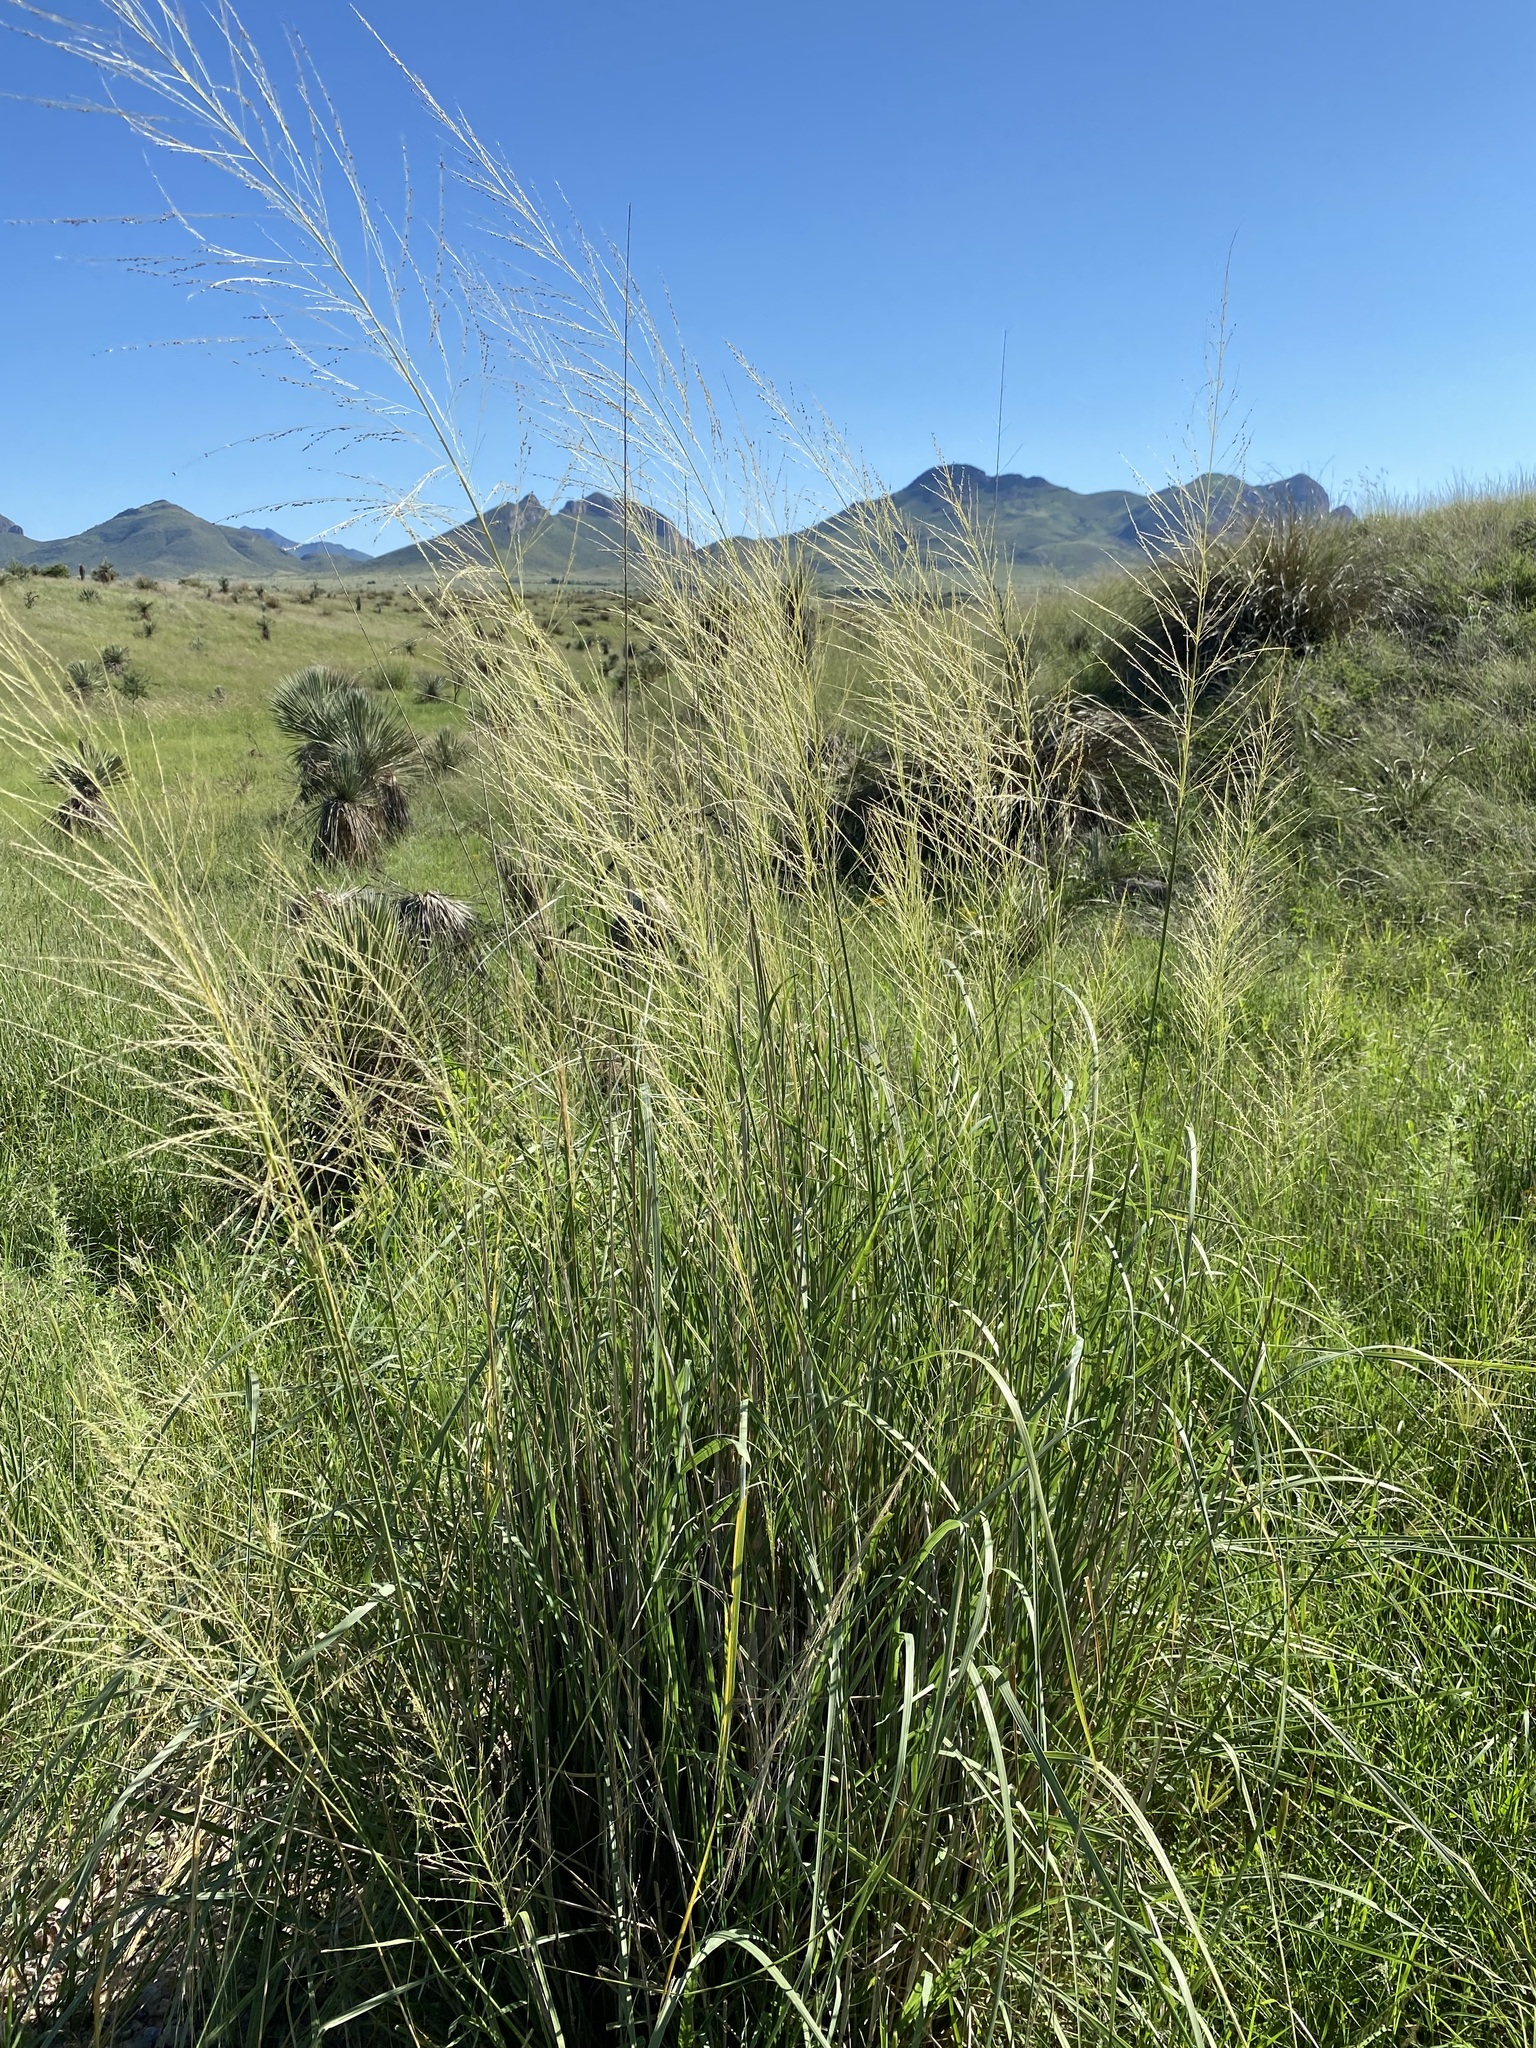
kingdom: Plantae
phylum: Tracheophyta
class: Liliopsida
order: Poales
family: Poaceae
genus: Sporobolus
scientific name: Sporobolus wrightii
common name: Big alkali sacaton
